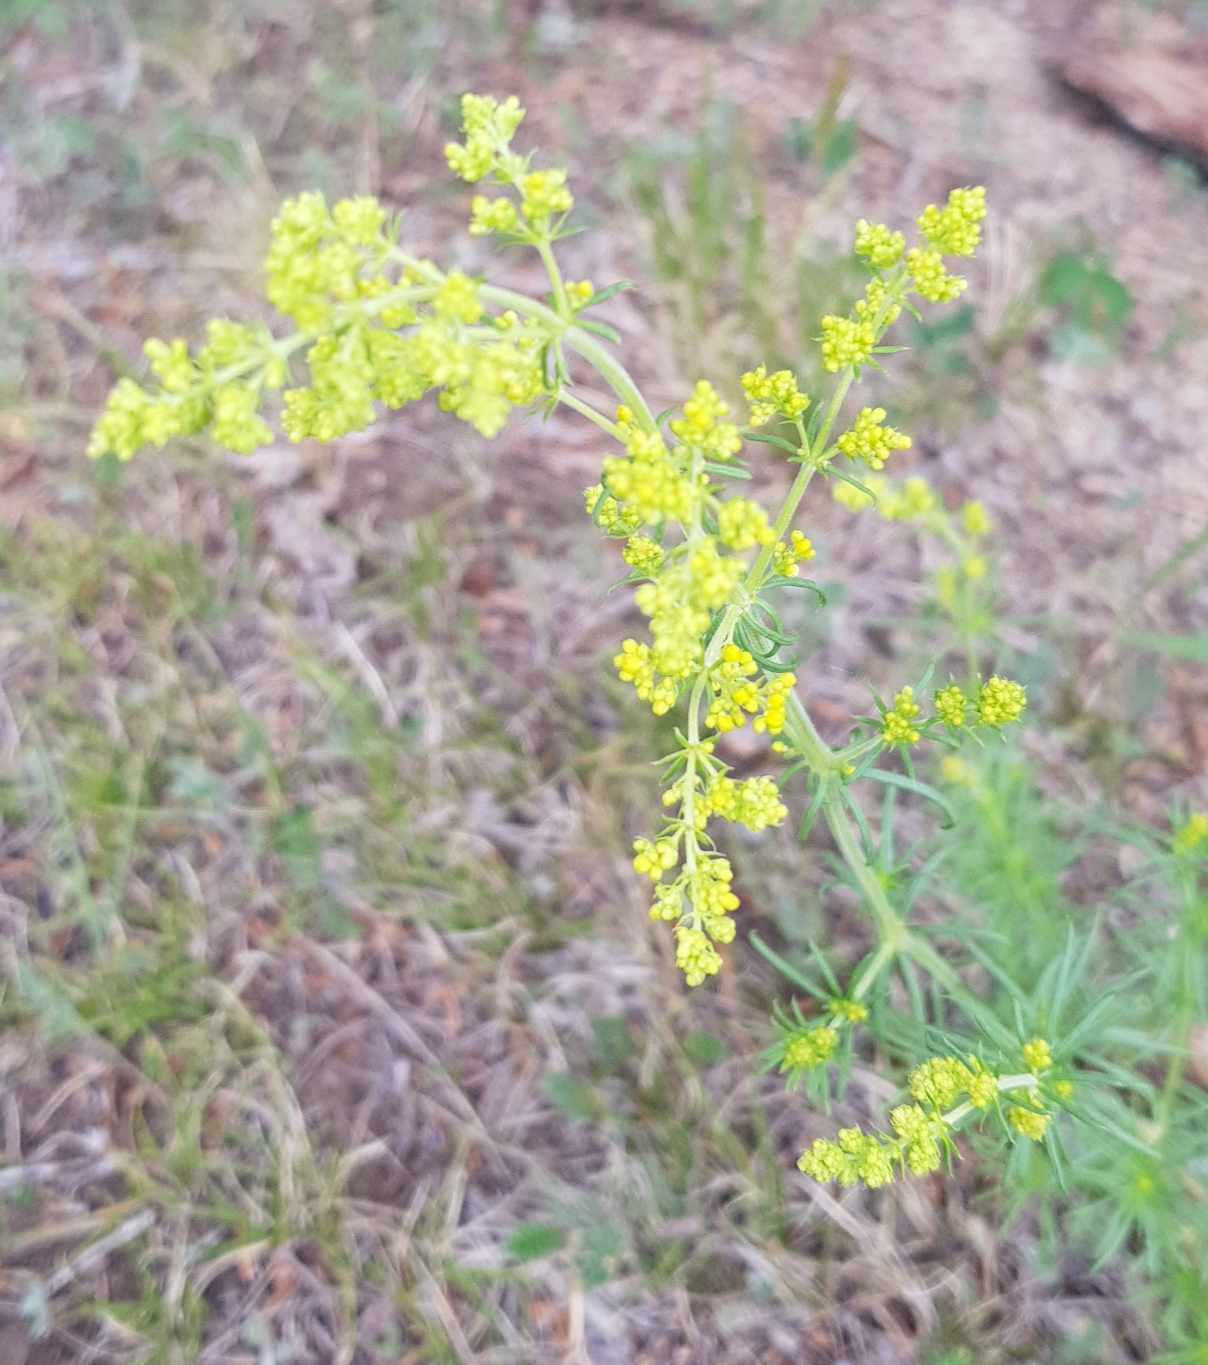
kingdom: Plantae
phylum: Tracheophyta
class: Magnoliopsida
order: Gentianales
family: Rubiaceae
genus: Galium
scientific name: Galium verum
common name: Lady's bedstraw
